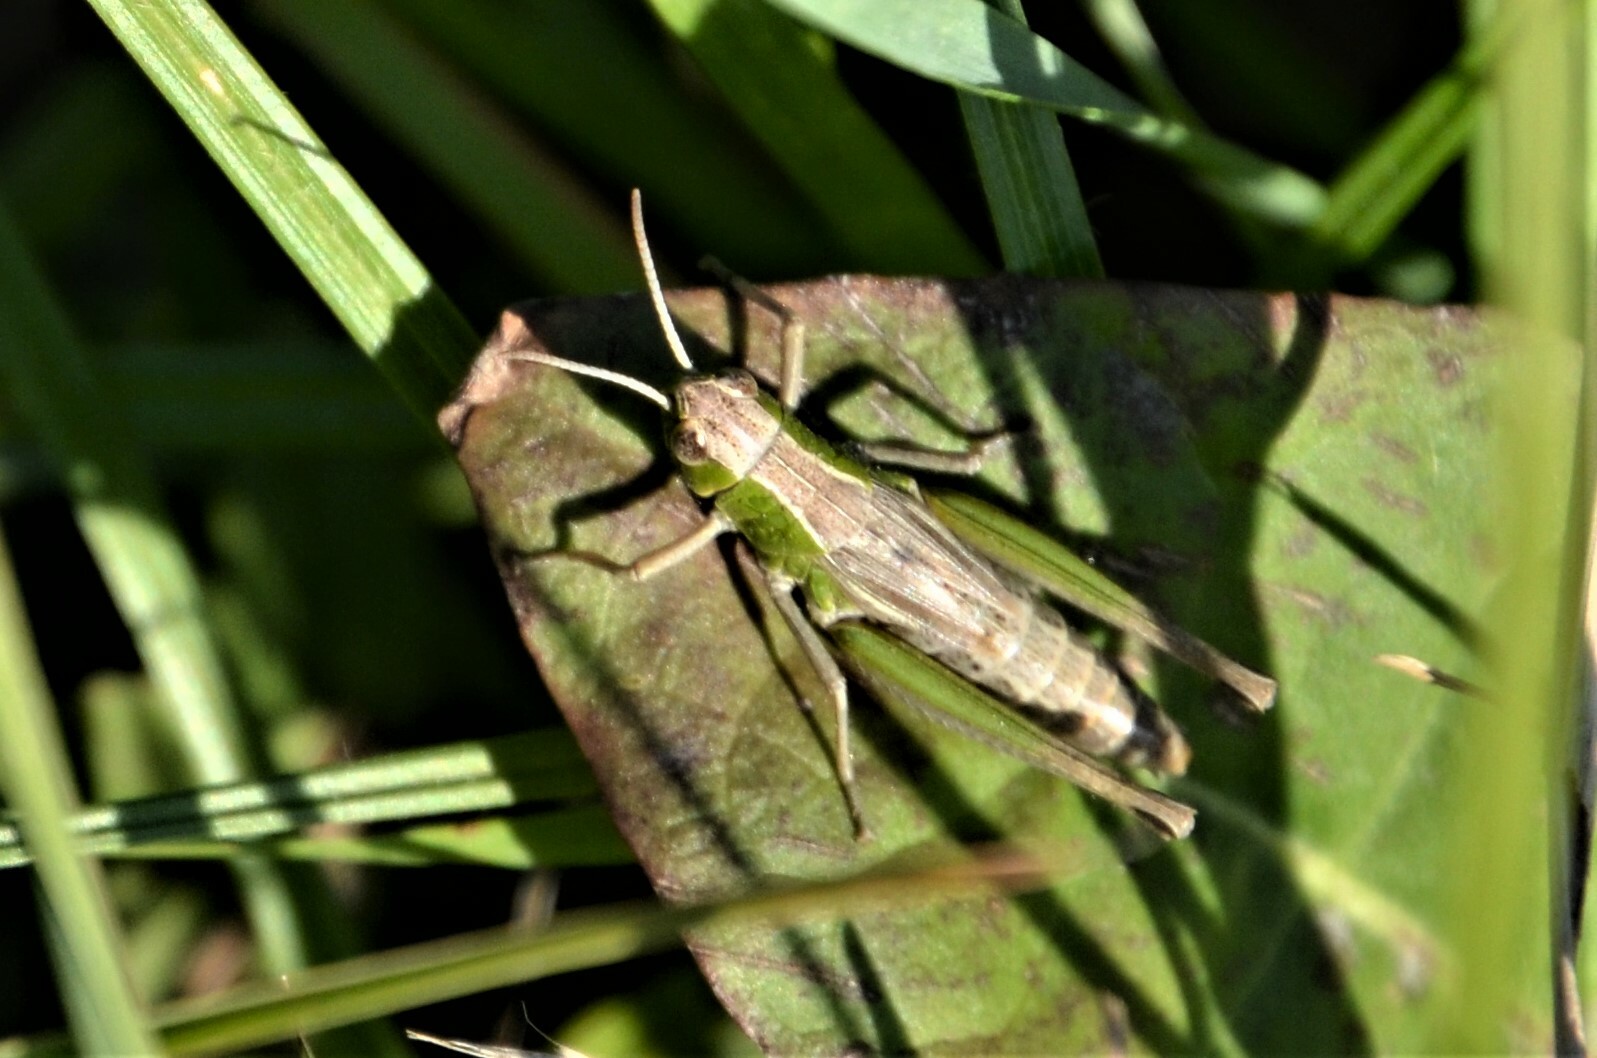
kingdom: Animalia
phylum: Arthropoda
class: Insecta
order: Orthoptera
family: Acrididae
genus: Pseudochorthippus
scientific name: Pseudochorthippus parallelus
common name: Meadow grasshopper
